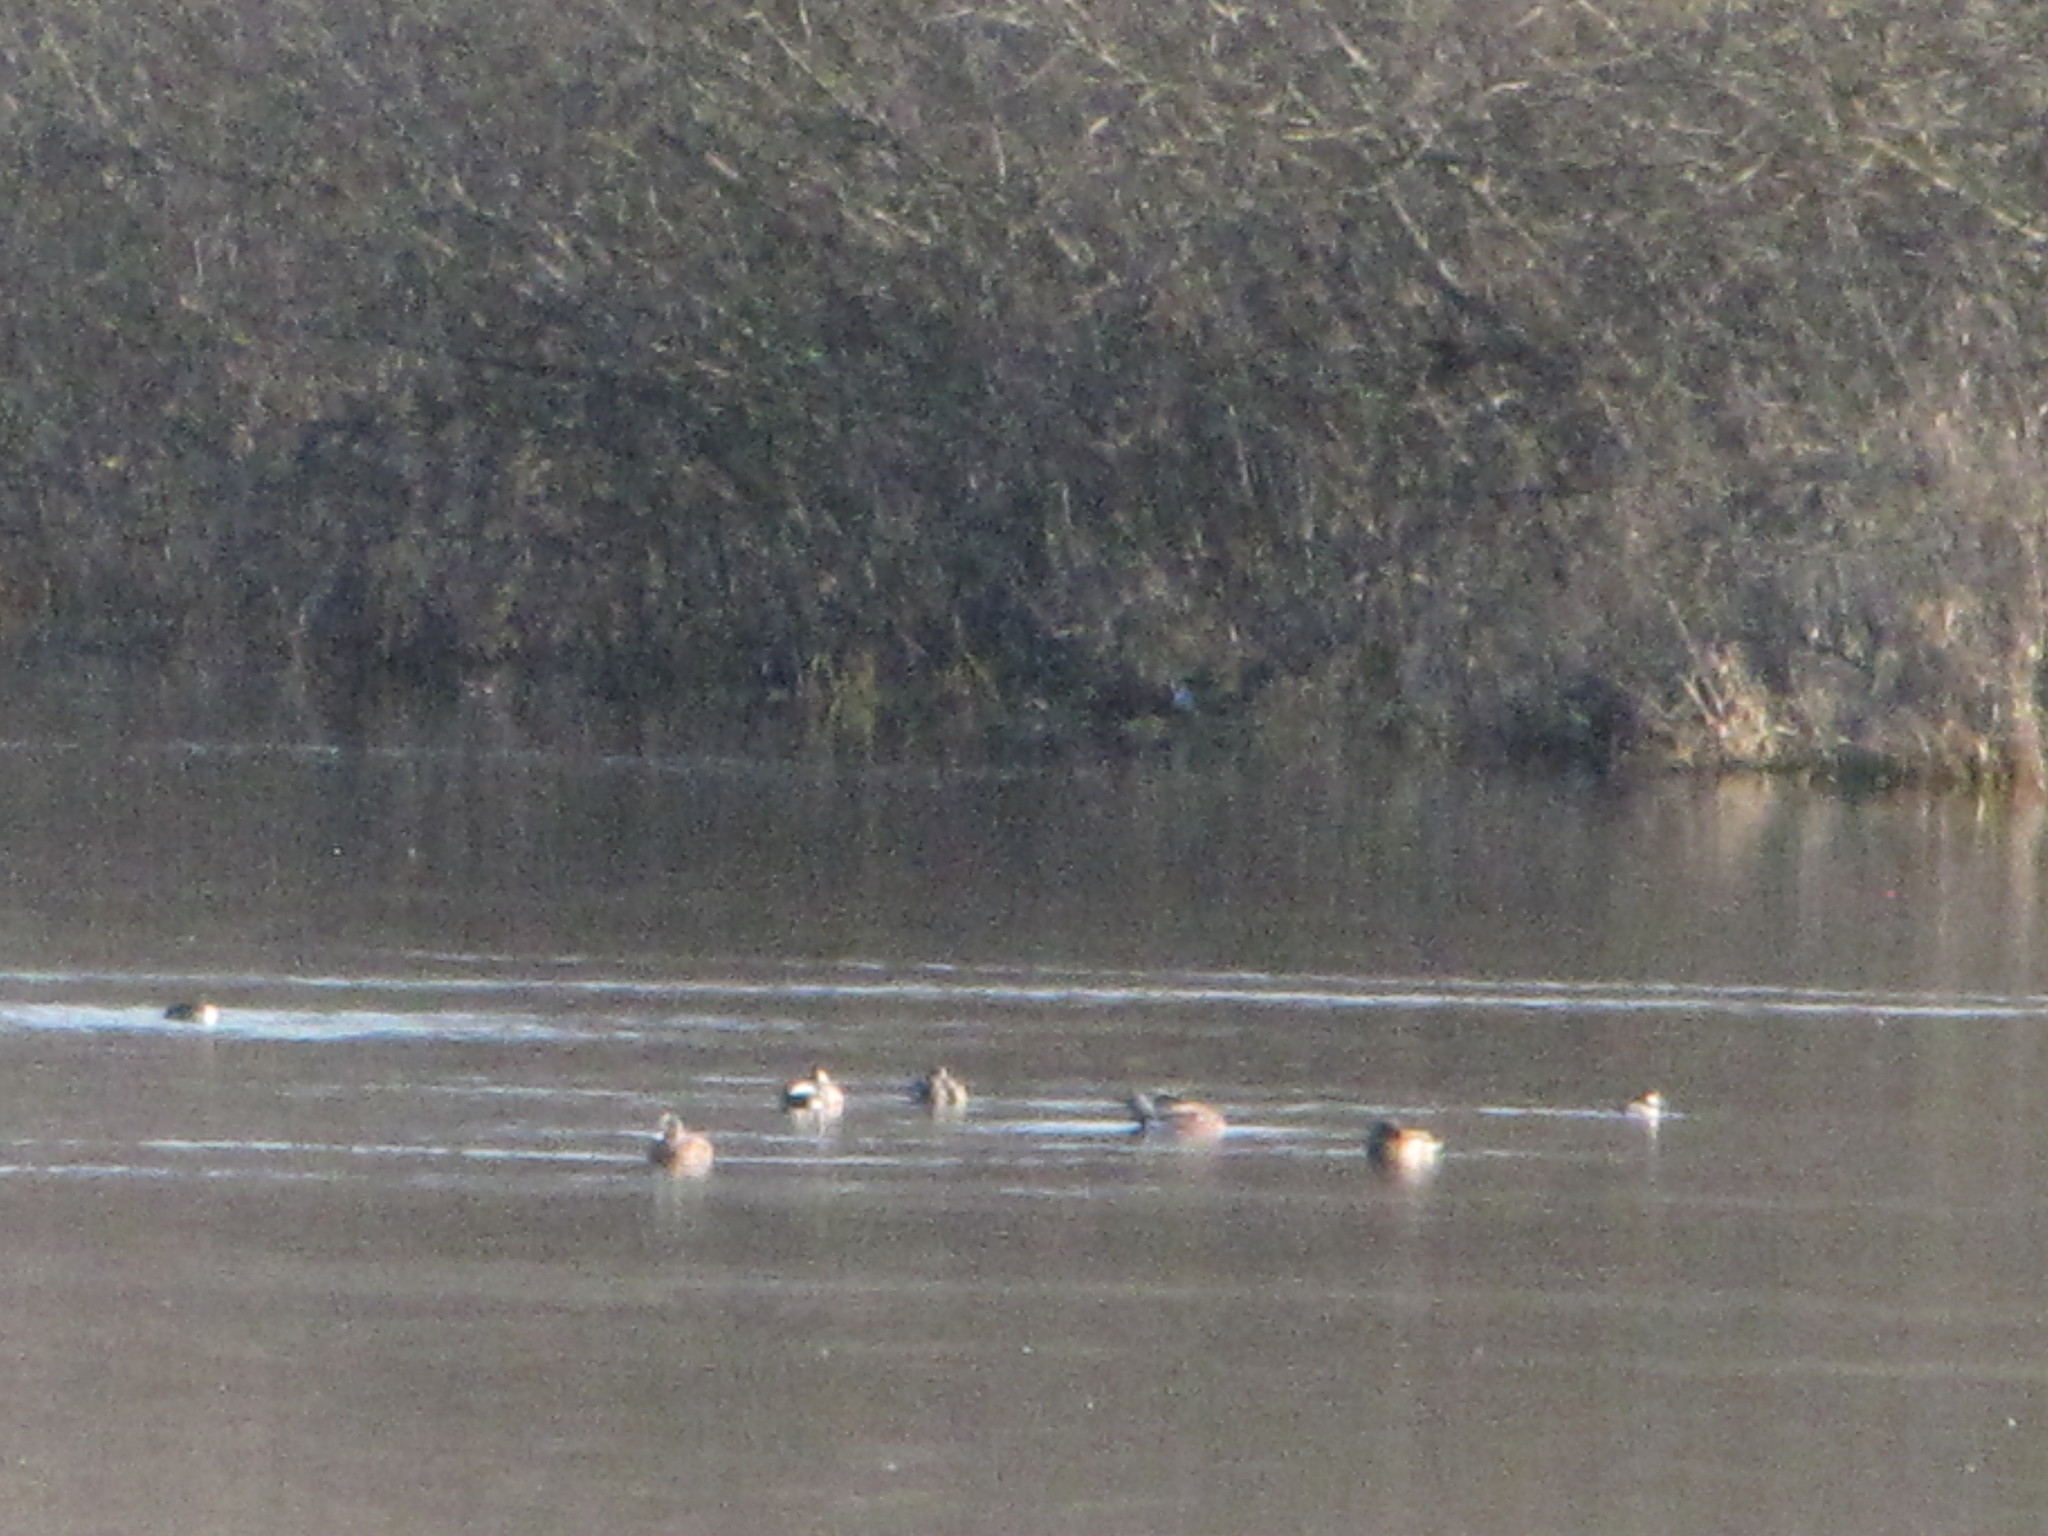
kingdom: Animalia
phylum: Chordata
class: Aves
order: Anseriformes
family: Anatidae
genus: Mareca
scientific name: Mareca americana
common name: American wigeon
